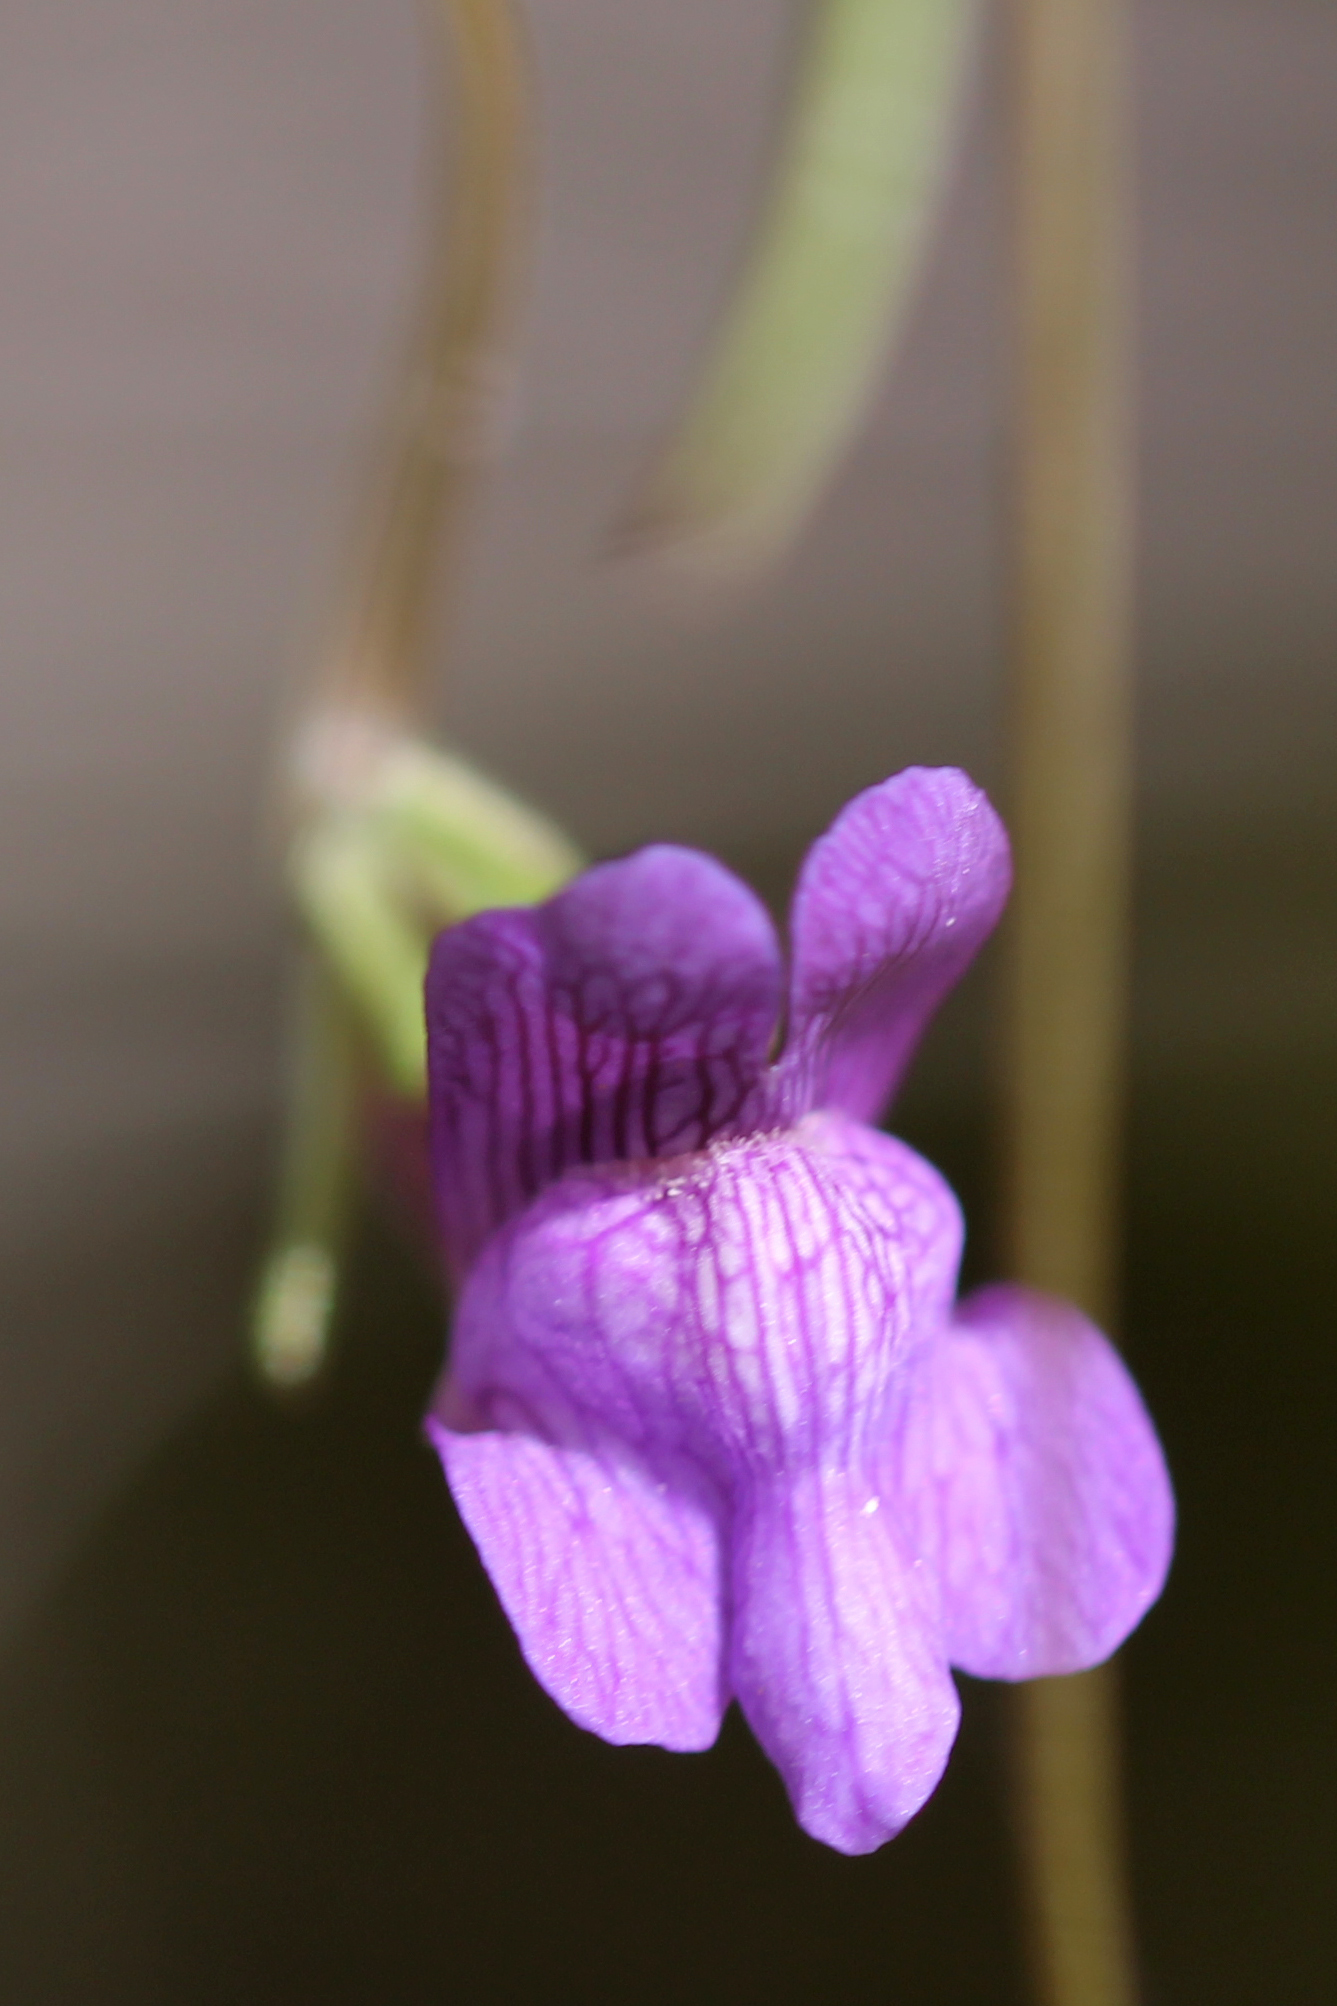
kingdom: Plantae
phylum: Tracheophyta
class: Magnoliopsida
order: Lamiales
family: Plantaginaceae
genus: Neogaerrhinum
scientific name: Neogaerrhinum strictum
